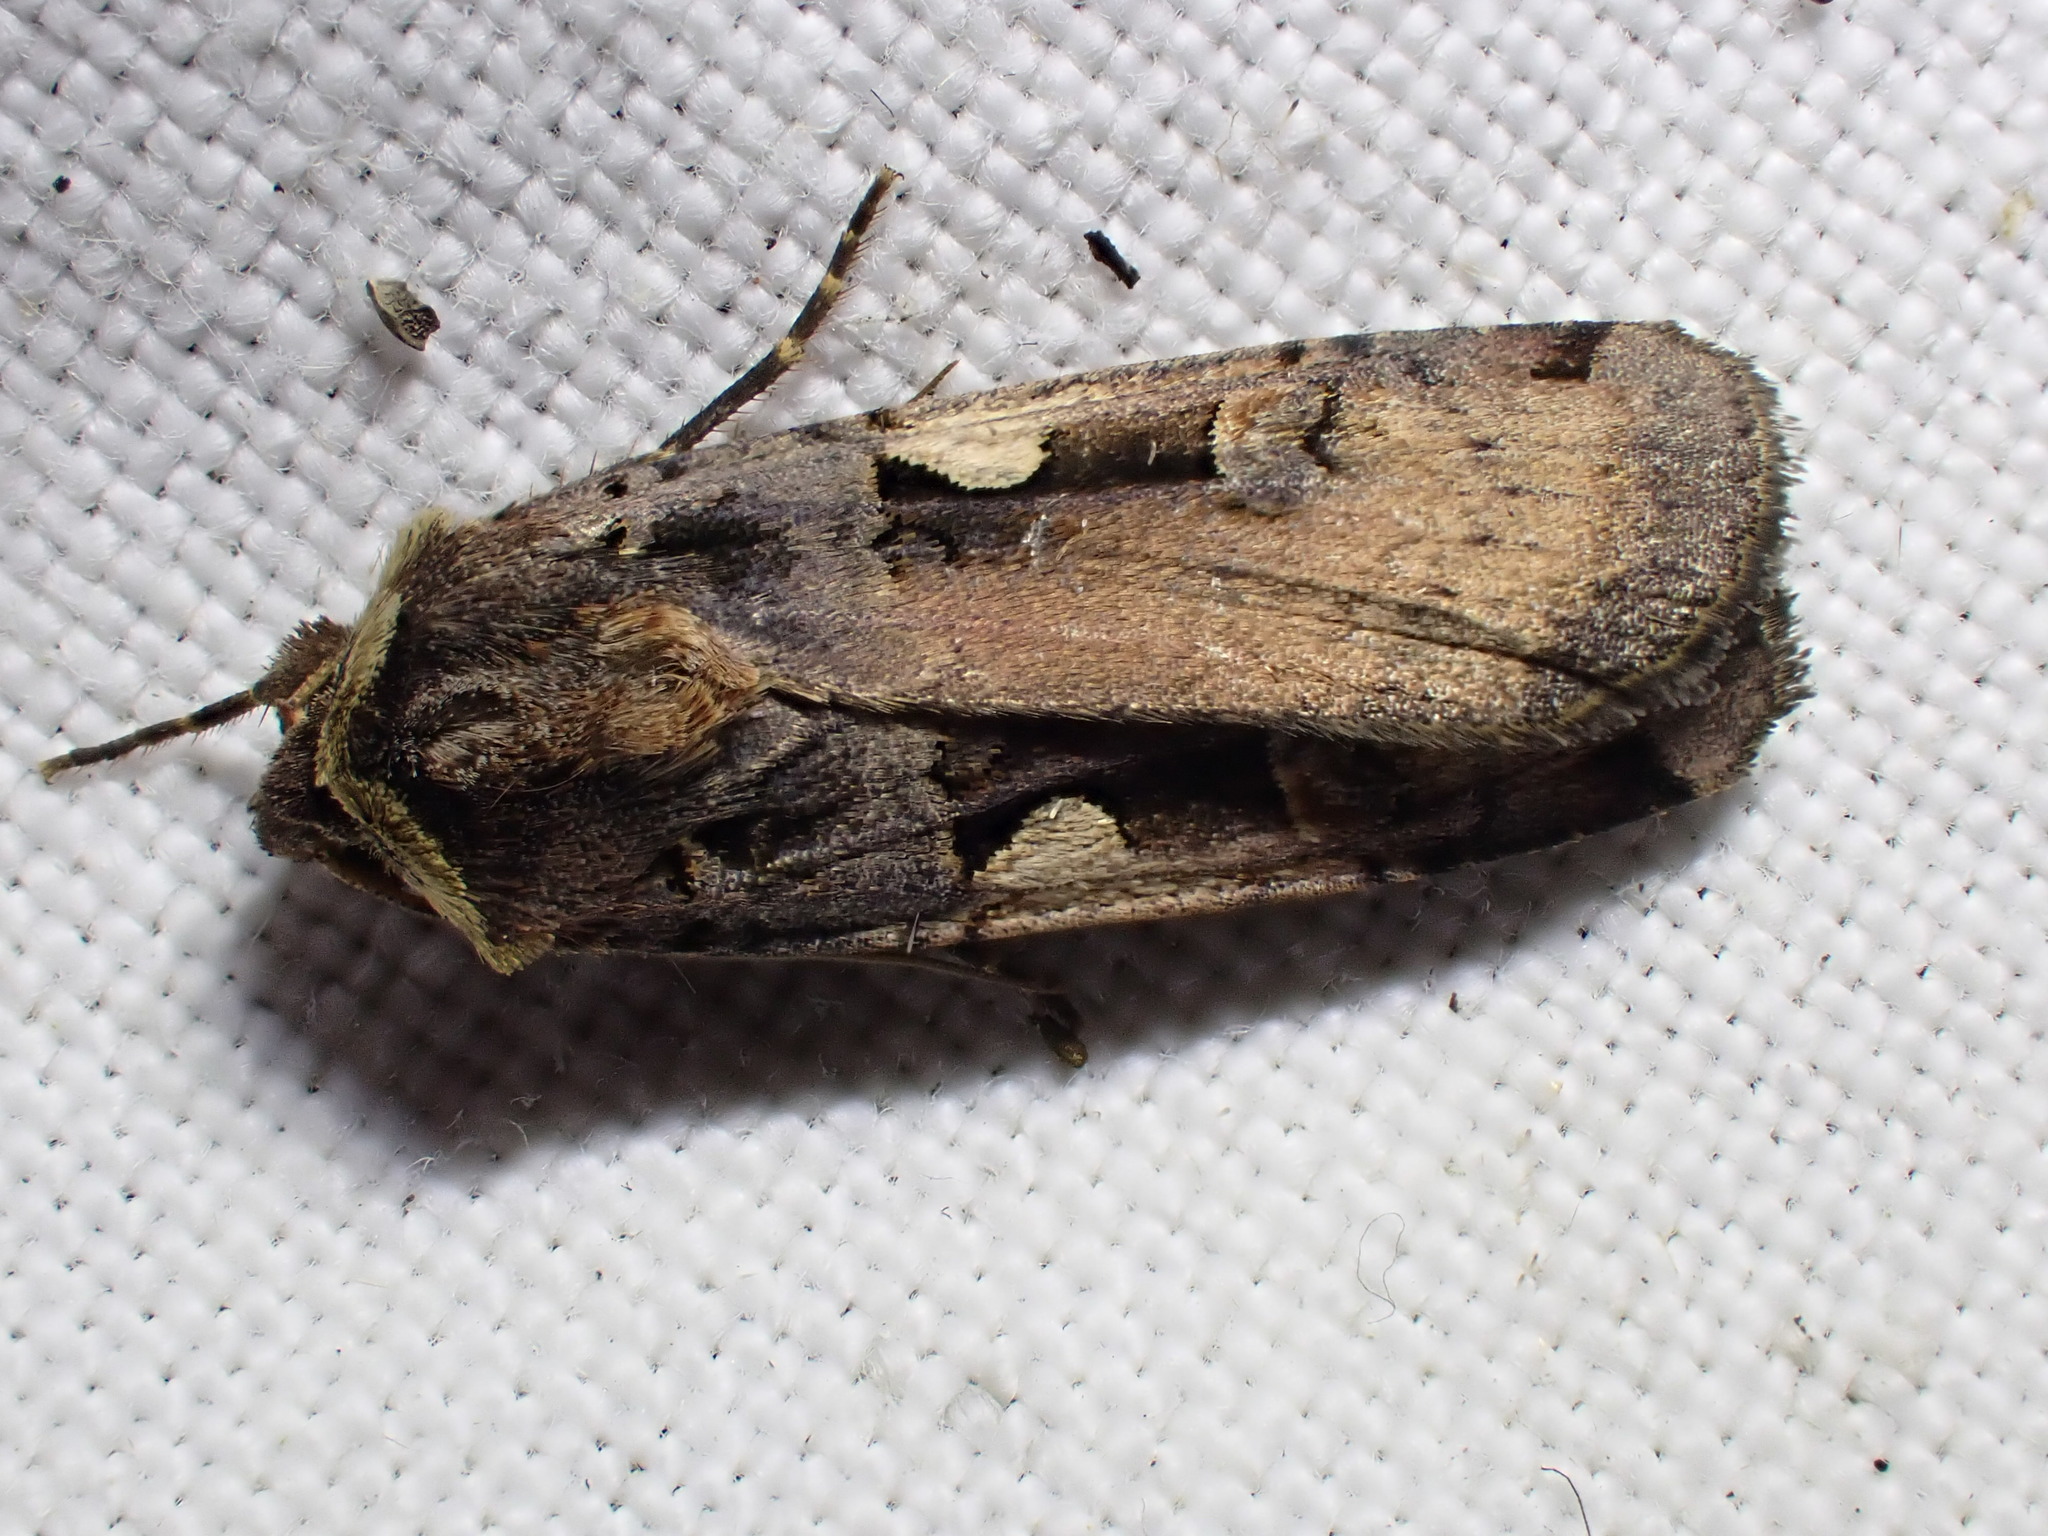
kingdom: Animalia
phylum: Arthropoda
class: Insecta
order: Lepidoptera
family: Noctuidae
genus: Xestia
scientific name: Xestia c-nigrum
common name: Setaceous hebrew character
